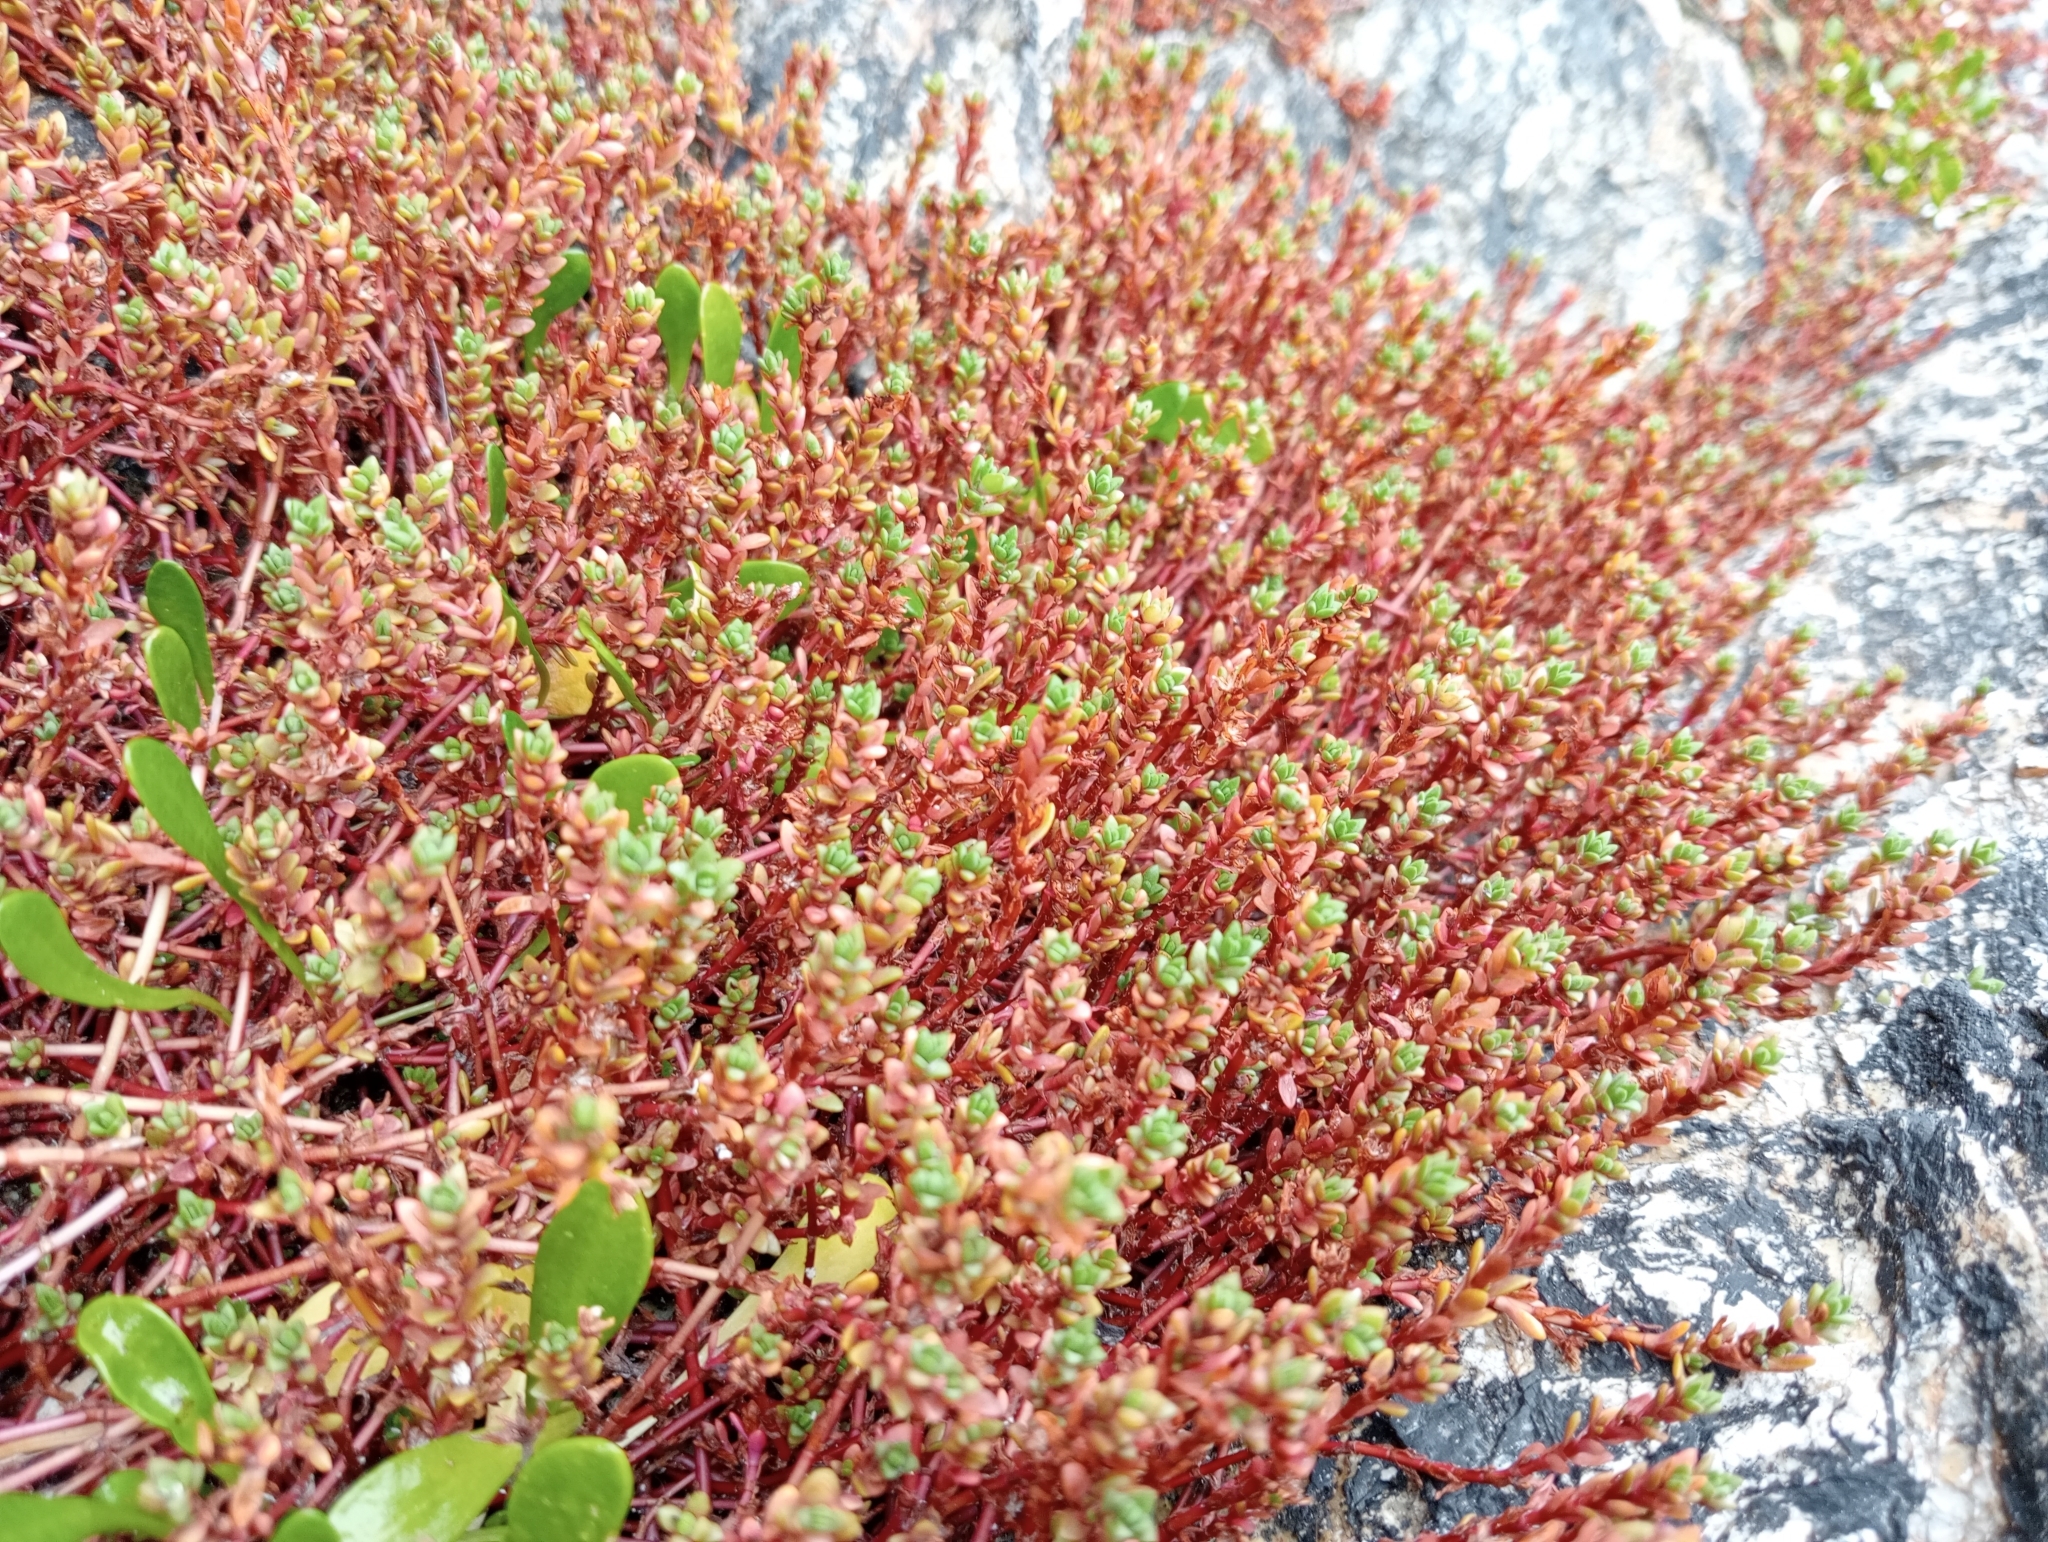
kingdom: Plantae
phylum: Tracheophyta
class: Magnoliopsida
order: Saxifragales
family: Crassulaceae
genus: Crassula
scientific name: Crassula moschata
